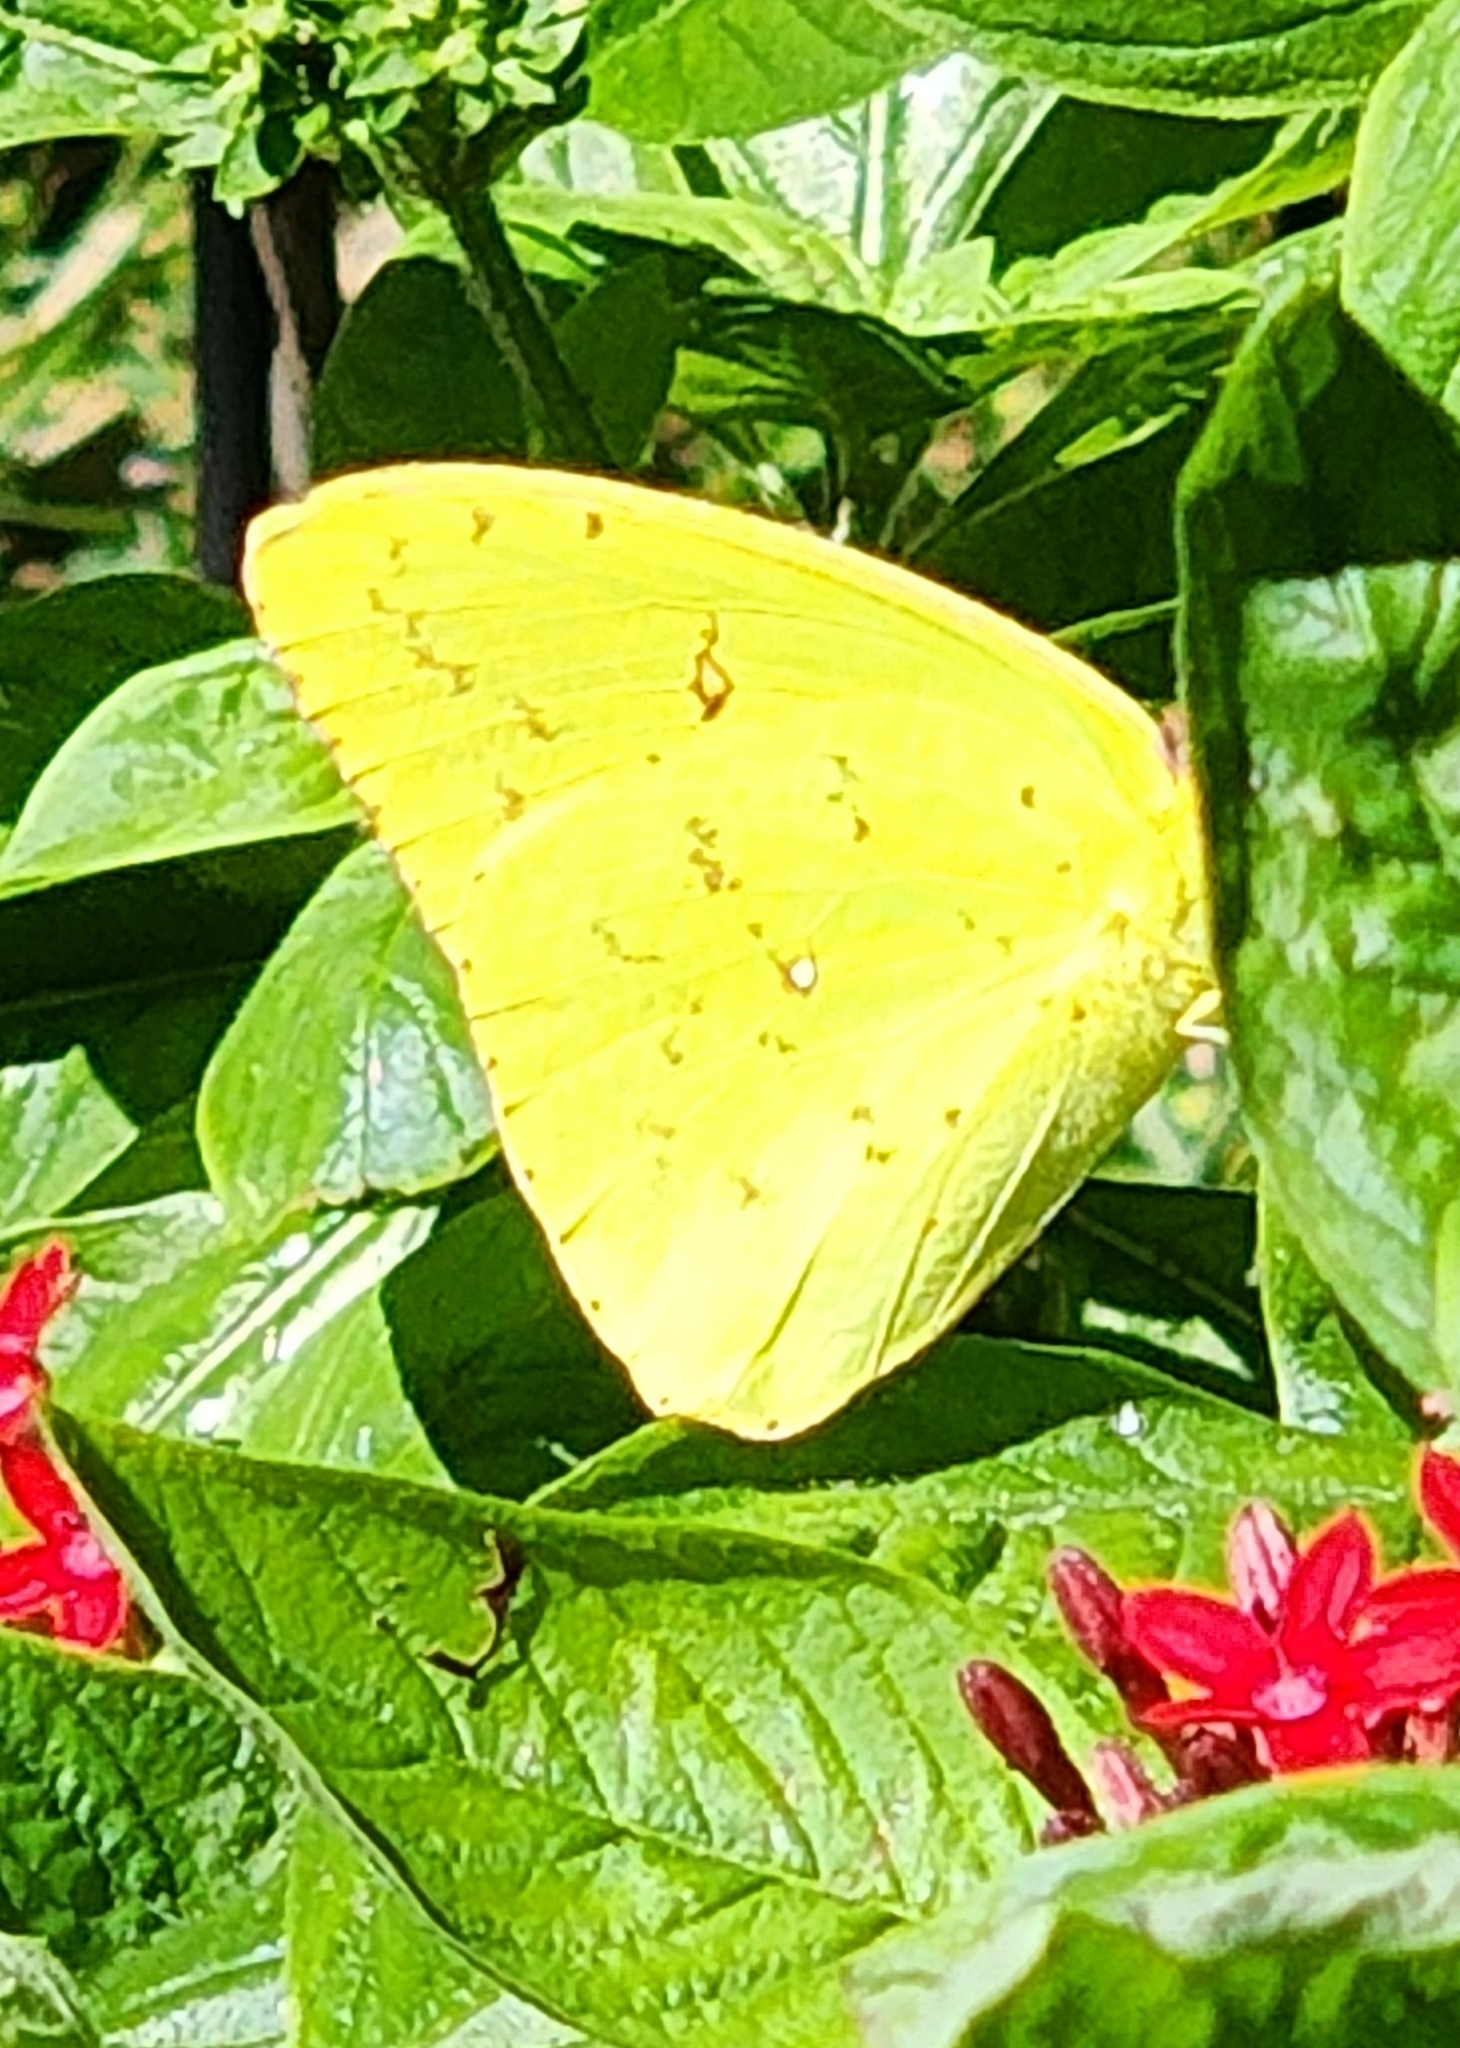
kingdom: Animalia
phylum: Arthropoda
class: Insecta
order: Lepidoptera
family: Pieridae
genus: Phoebis
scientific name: Phoebis sennae
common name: Cloudless sulphur
